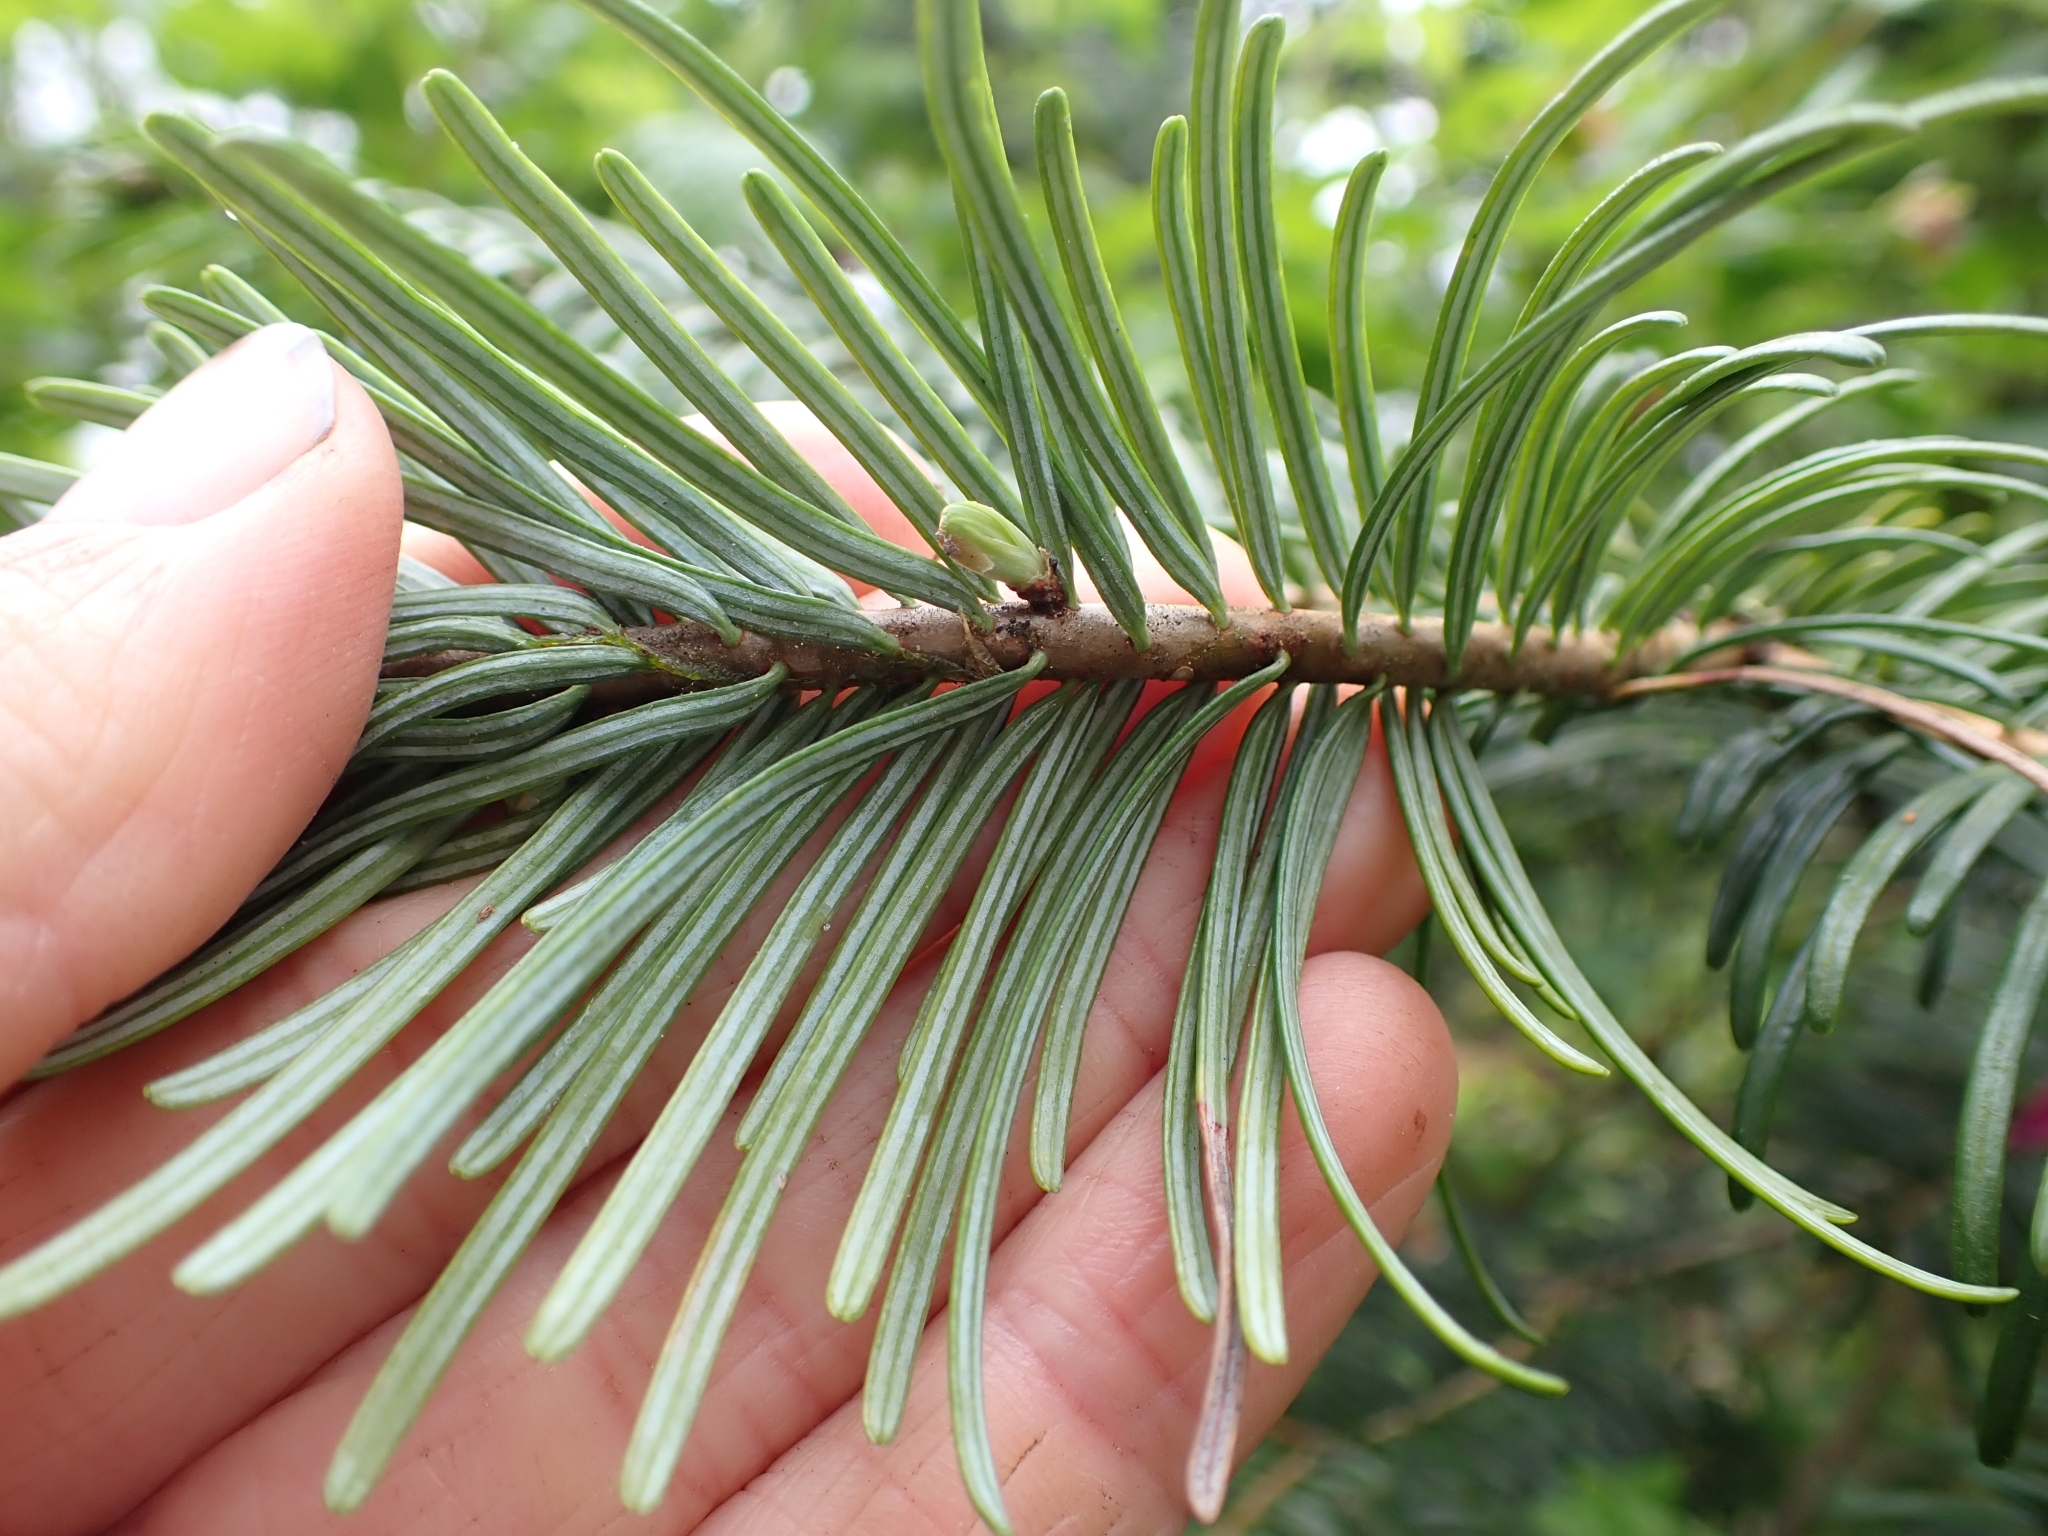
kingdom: Plantae
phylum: Tracheophyta
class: Pinopsida
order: Pinales
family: Pinaceae
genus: Abies
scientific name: Abies grandis
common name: Giant fir
